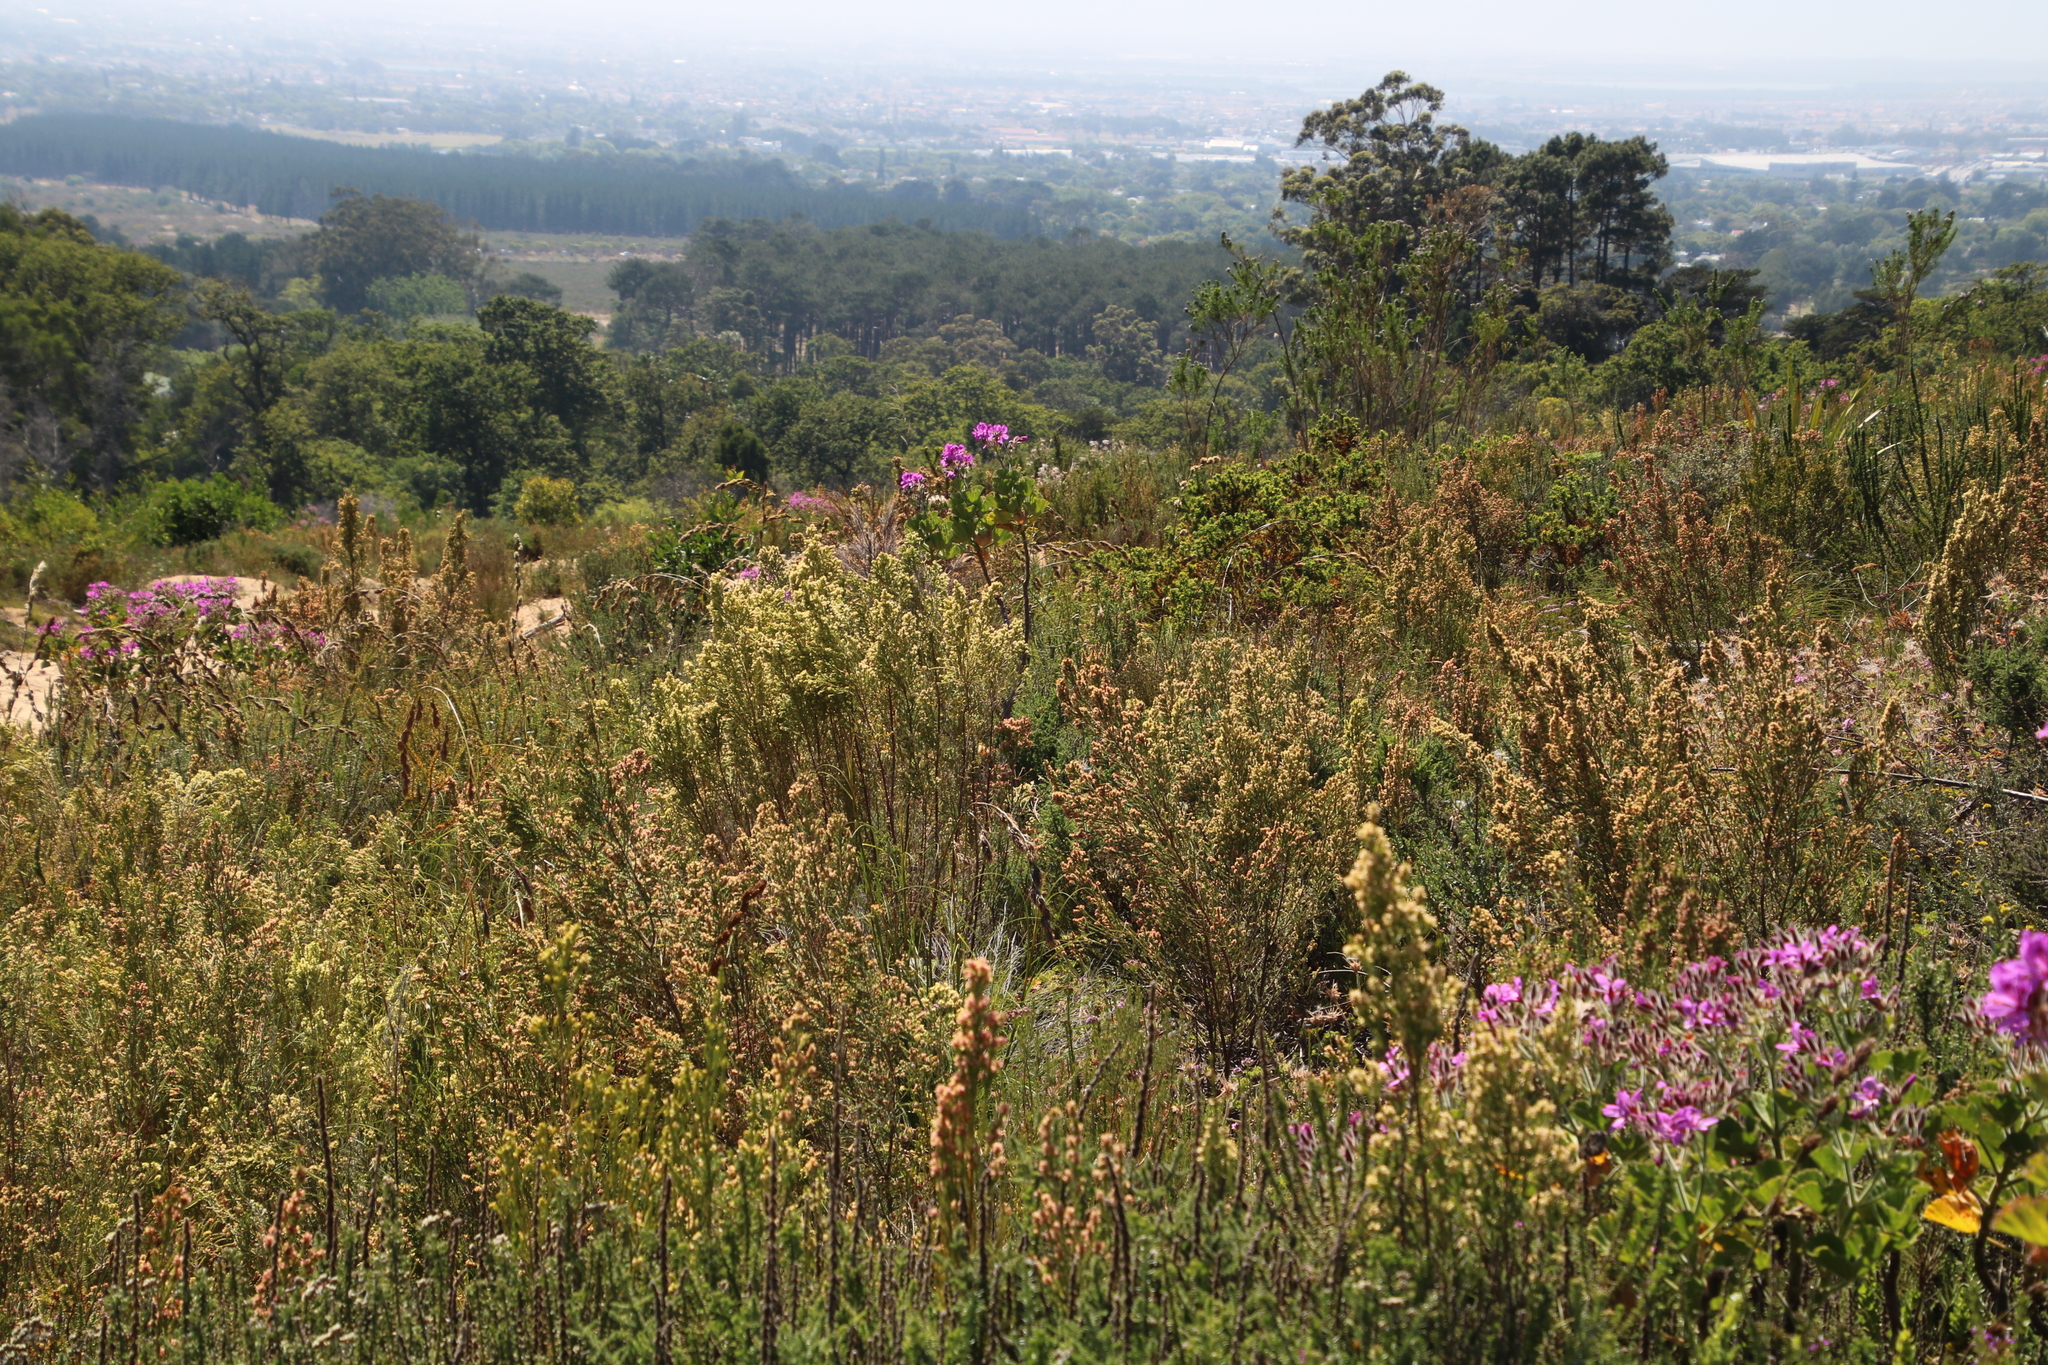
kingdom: Plantae
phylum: Tracheophyta
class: Magnoliopsida
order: Malvales
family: Thymelaeaceae
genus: Passerina
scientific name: Passerina corymbosa
